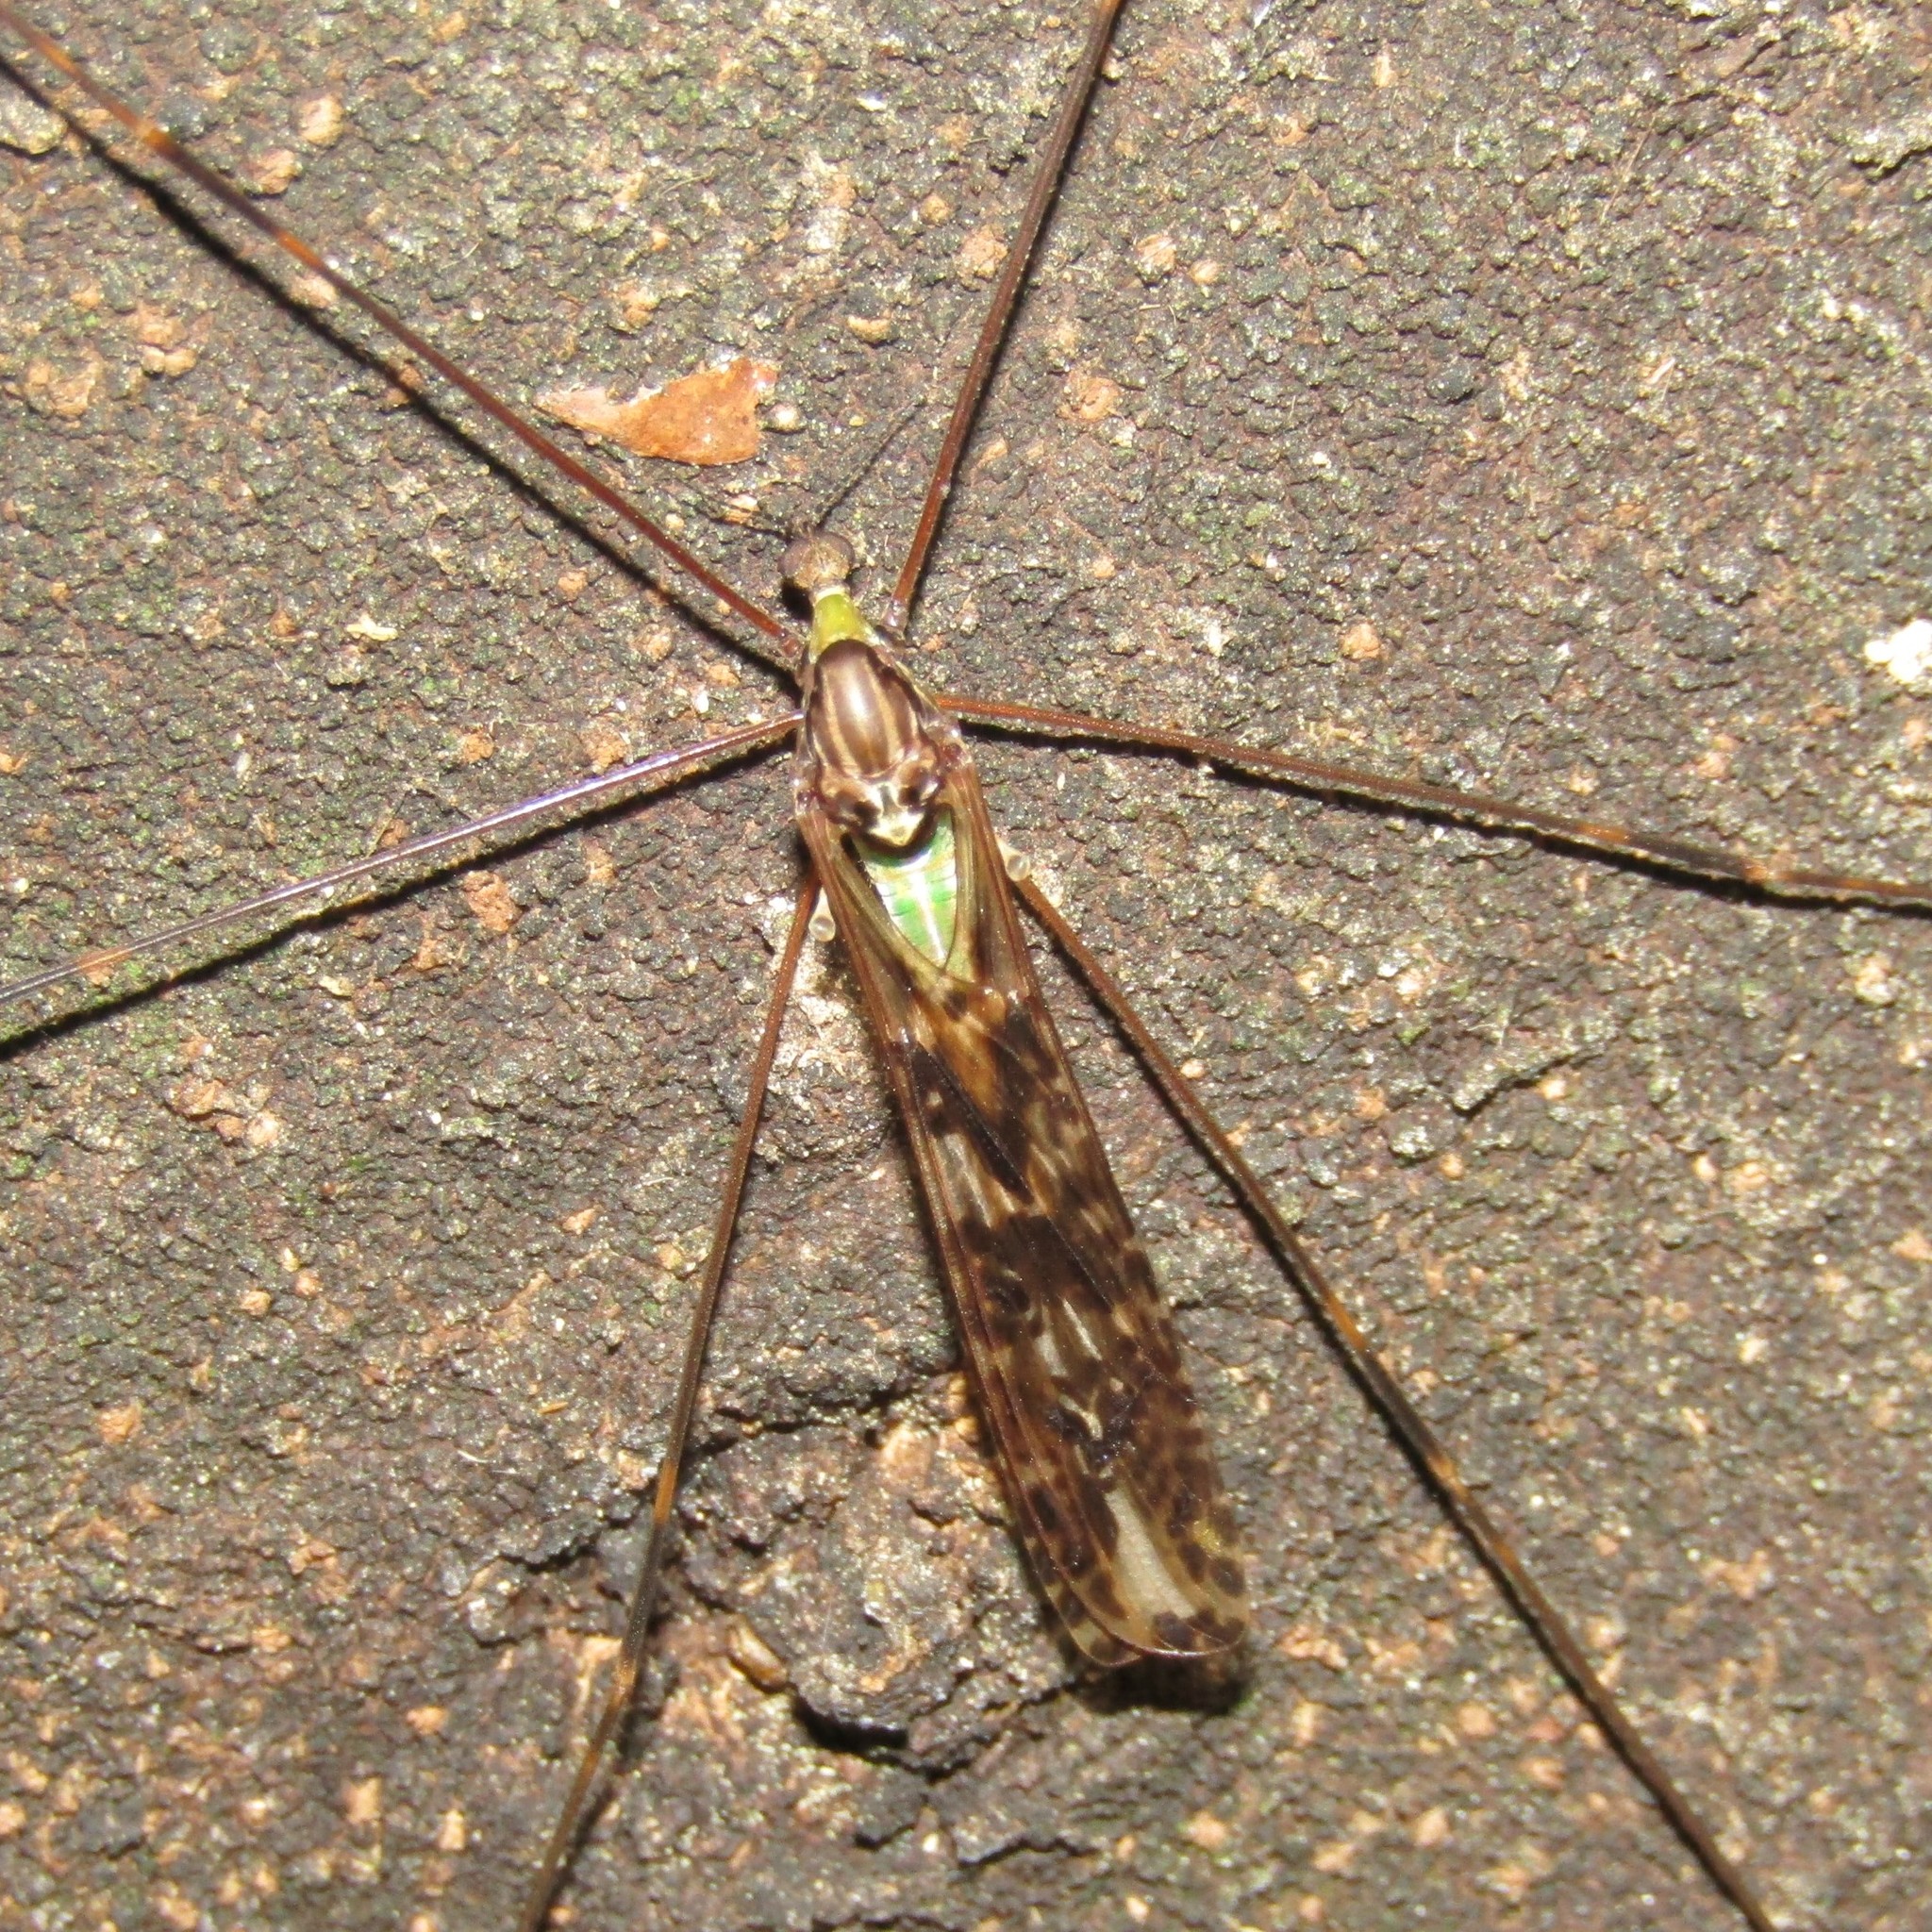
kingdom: Animalia
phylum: Arthropoda
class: Insecta
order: Diptera
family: Limoniidae
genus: Discobola
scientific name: Discobola dohrni
